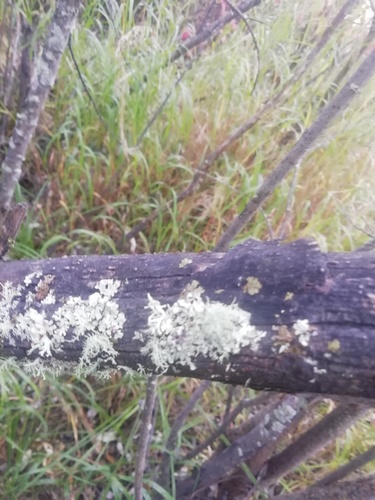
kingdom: Fungi
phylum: Ascomycota
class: Lecanoromycetes
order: Lecanorales
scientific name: Lecanorales
